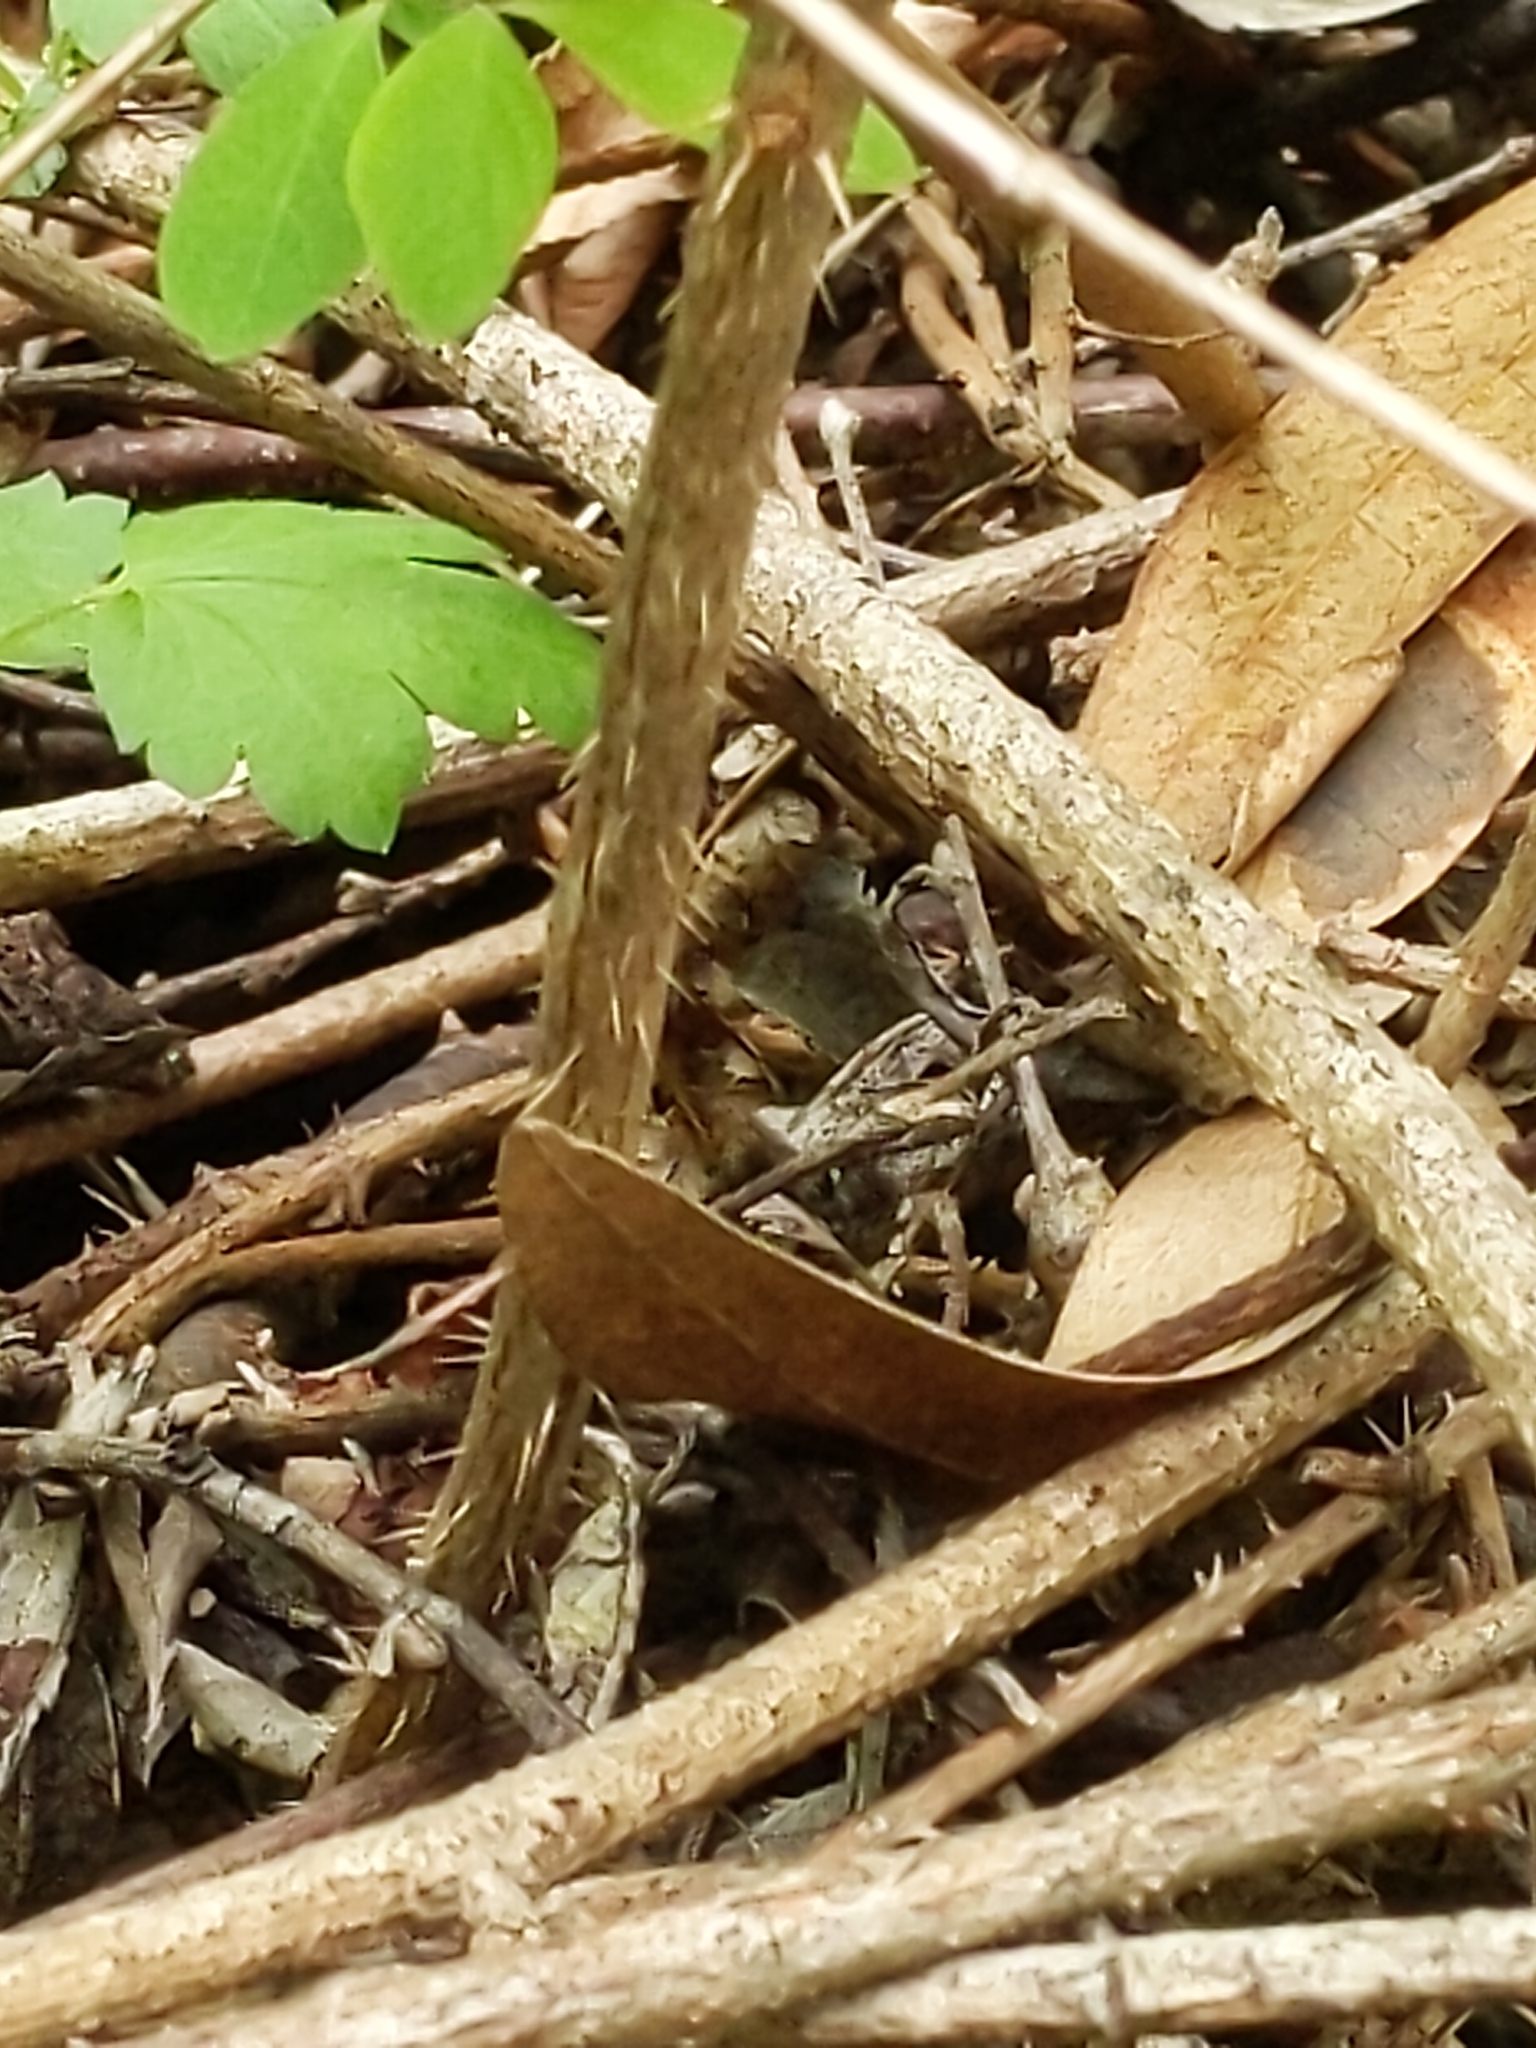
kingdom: Plantae
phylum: Tracheophyta
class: Magnoliopsida
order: Saxifragales
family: Grossulariaceae
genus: Ribes
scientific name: Ribes divaricatum
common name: Wild black gooseberry
